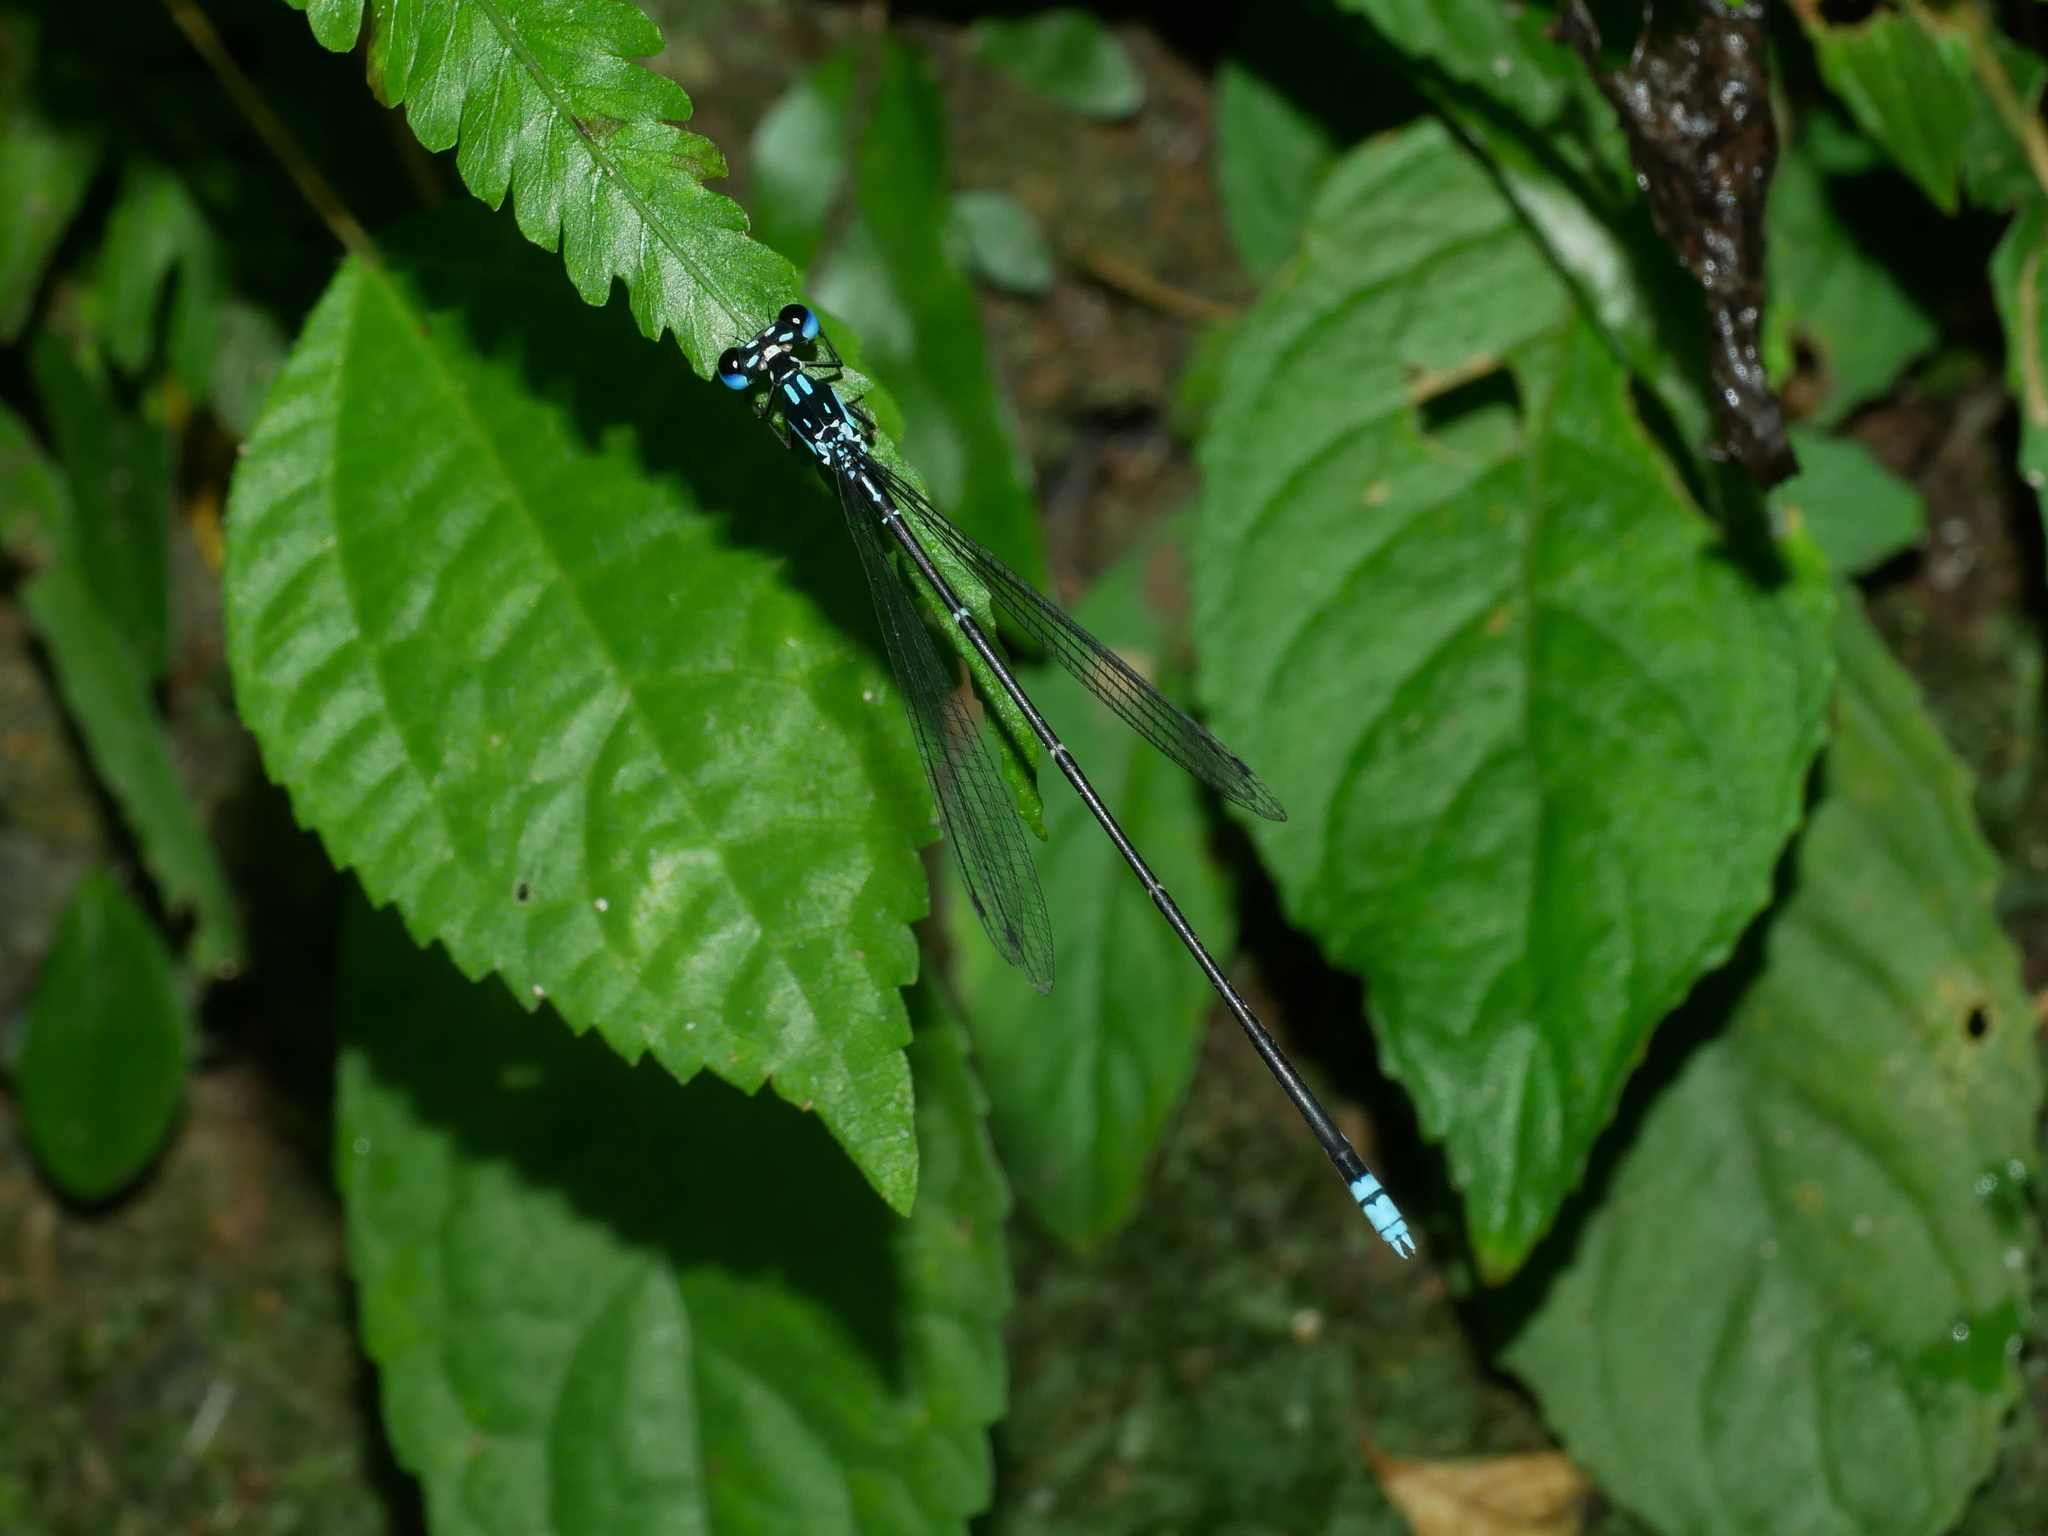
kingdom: Animalia
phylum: Arthropoda
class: Insecta
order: Odonata
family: Platycnemididae
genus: Coeliccia
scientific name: Coeliccia cyanomelas
